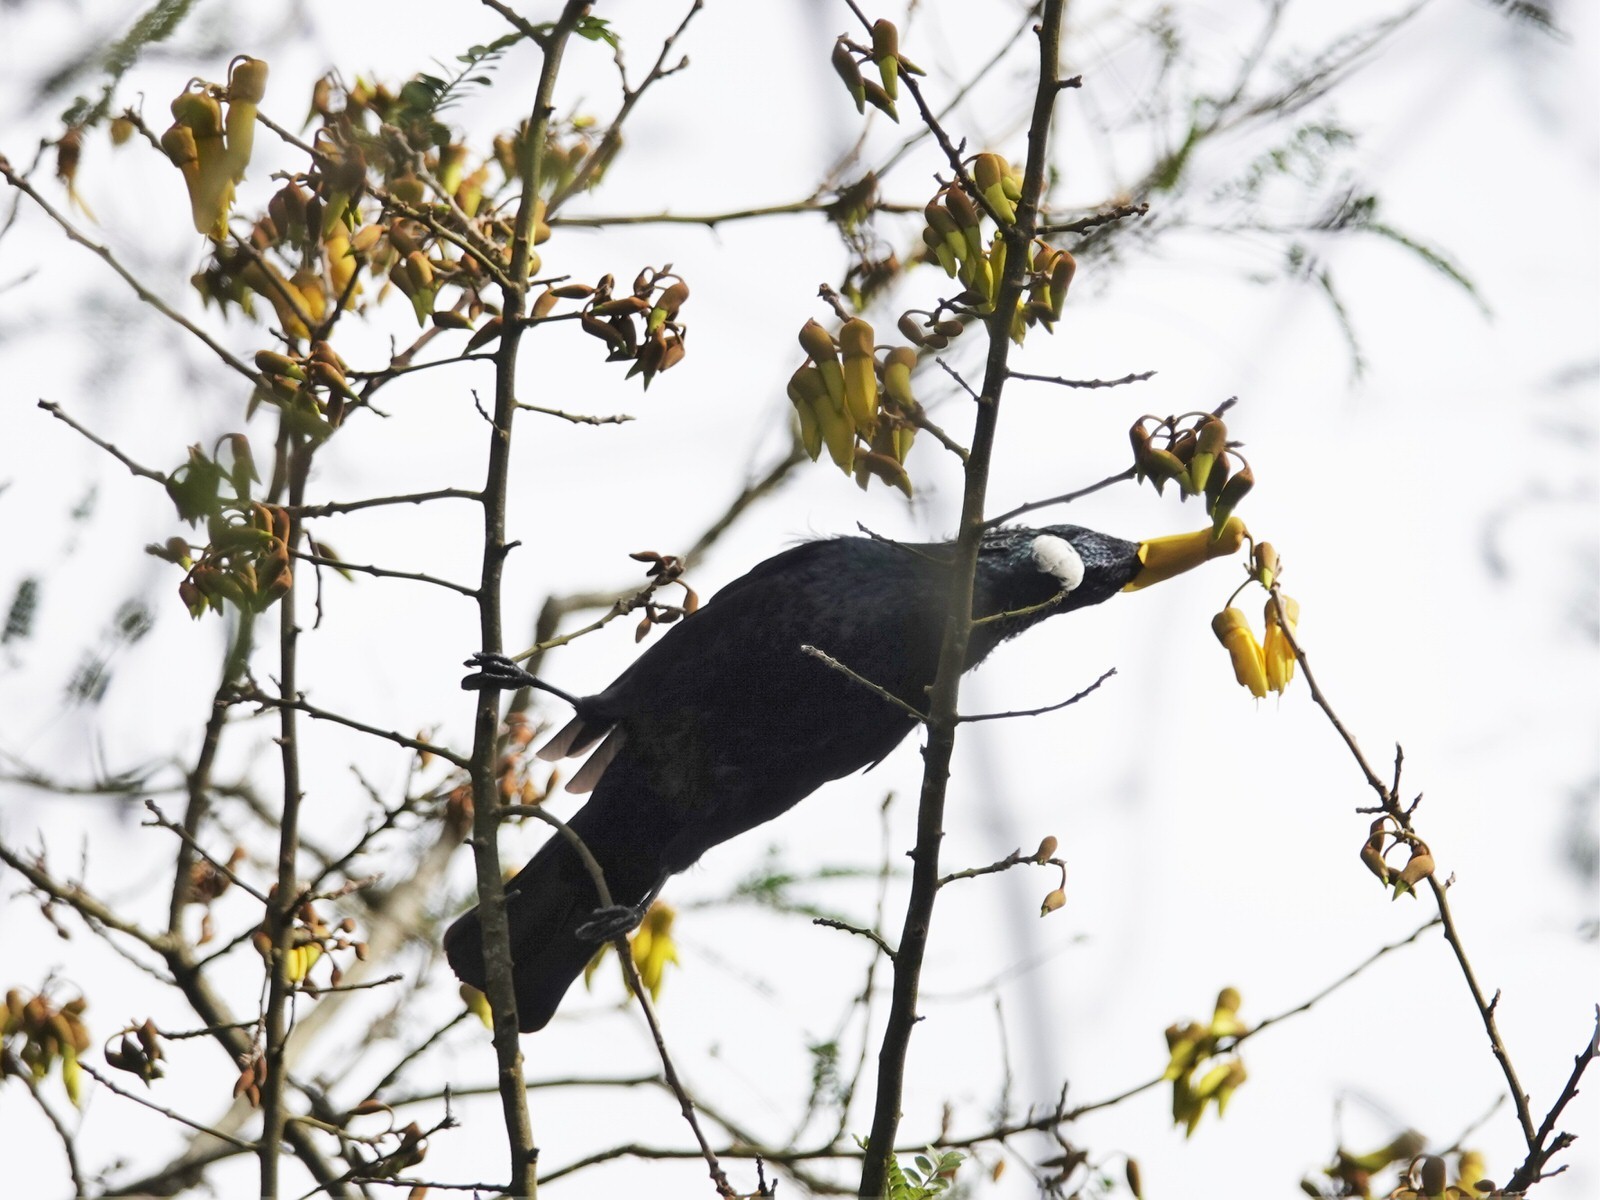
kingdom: Animalia
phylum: Chordata
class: Aves
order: Passeriformes
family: Meliphagidae
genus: Prosthemadera
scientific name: Prosthemadera novaeseelandiae
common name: Tui
